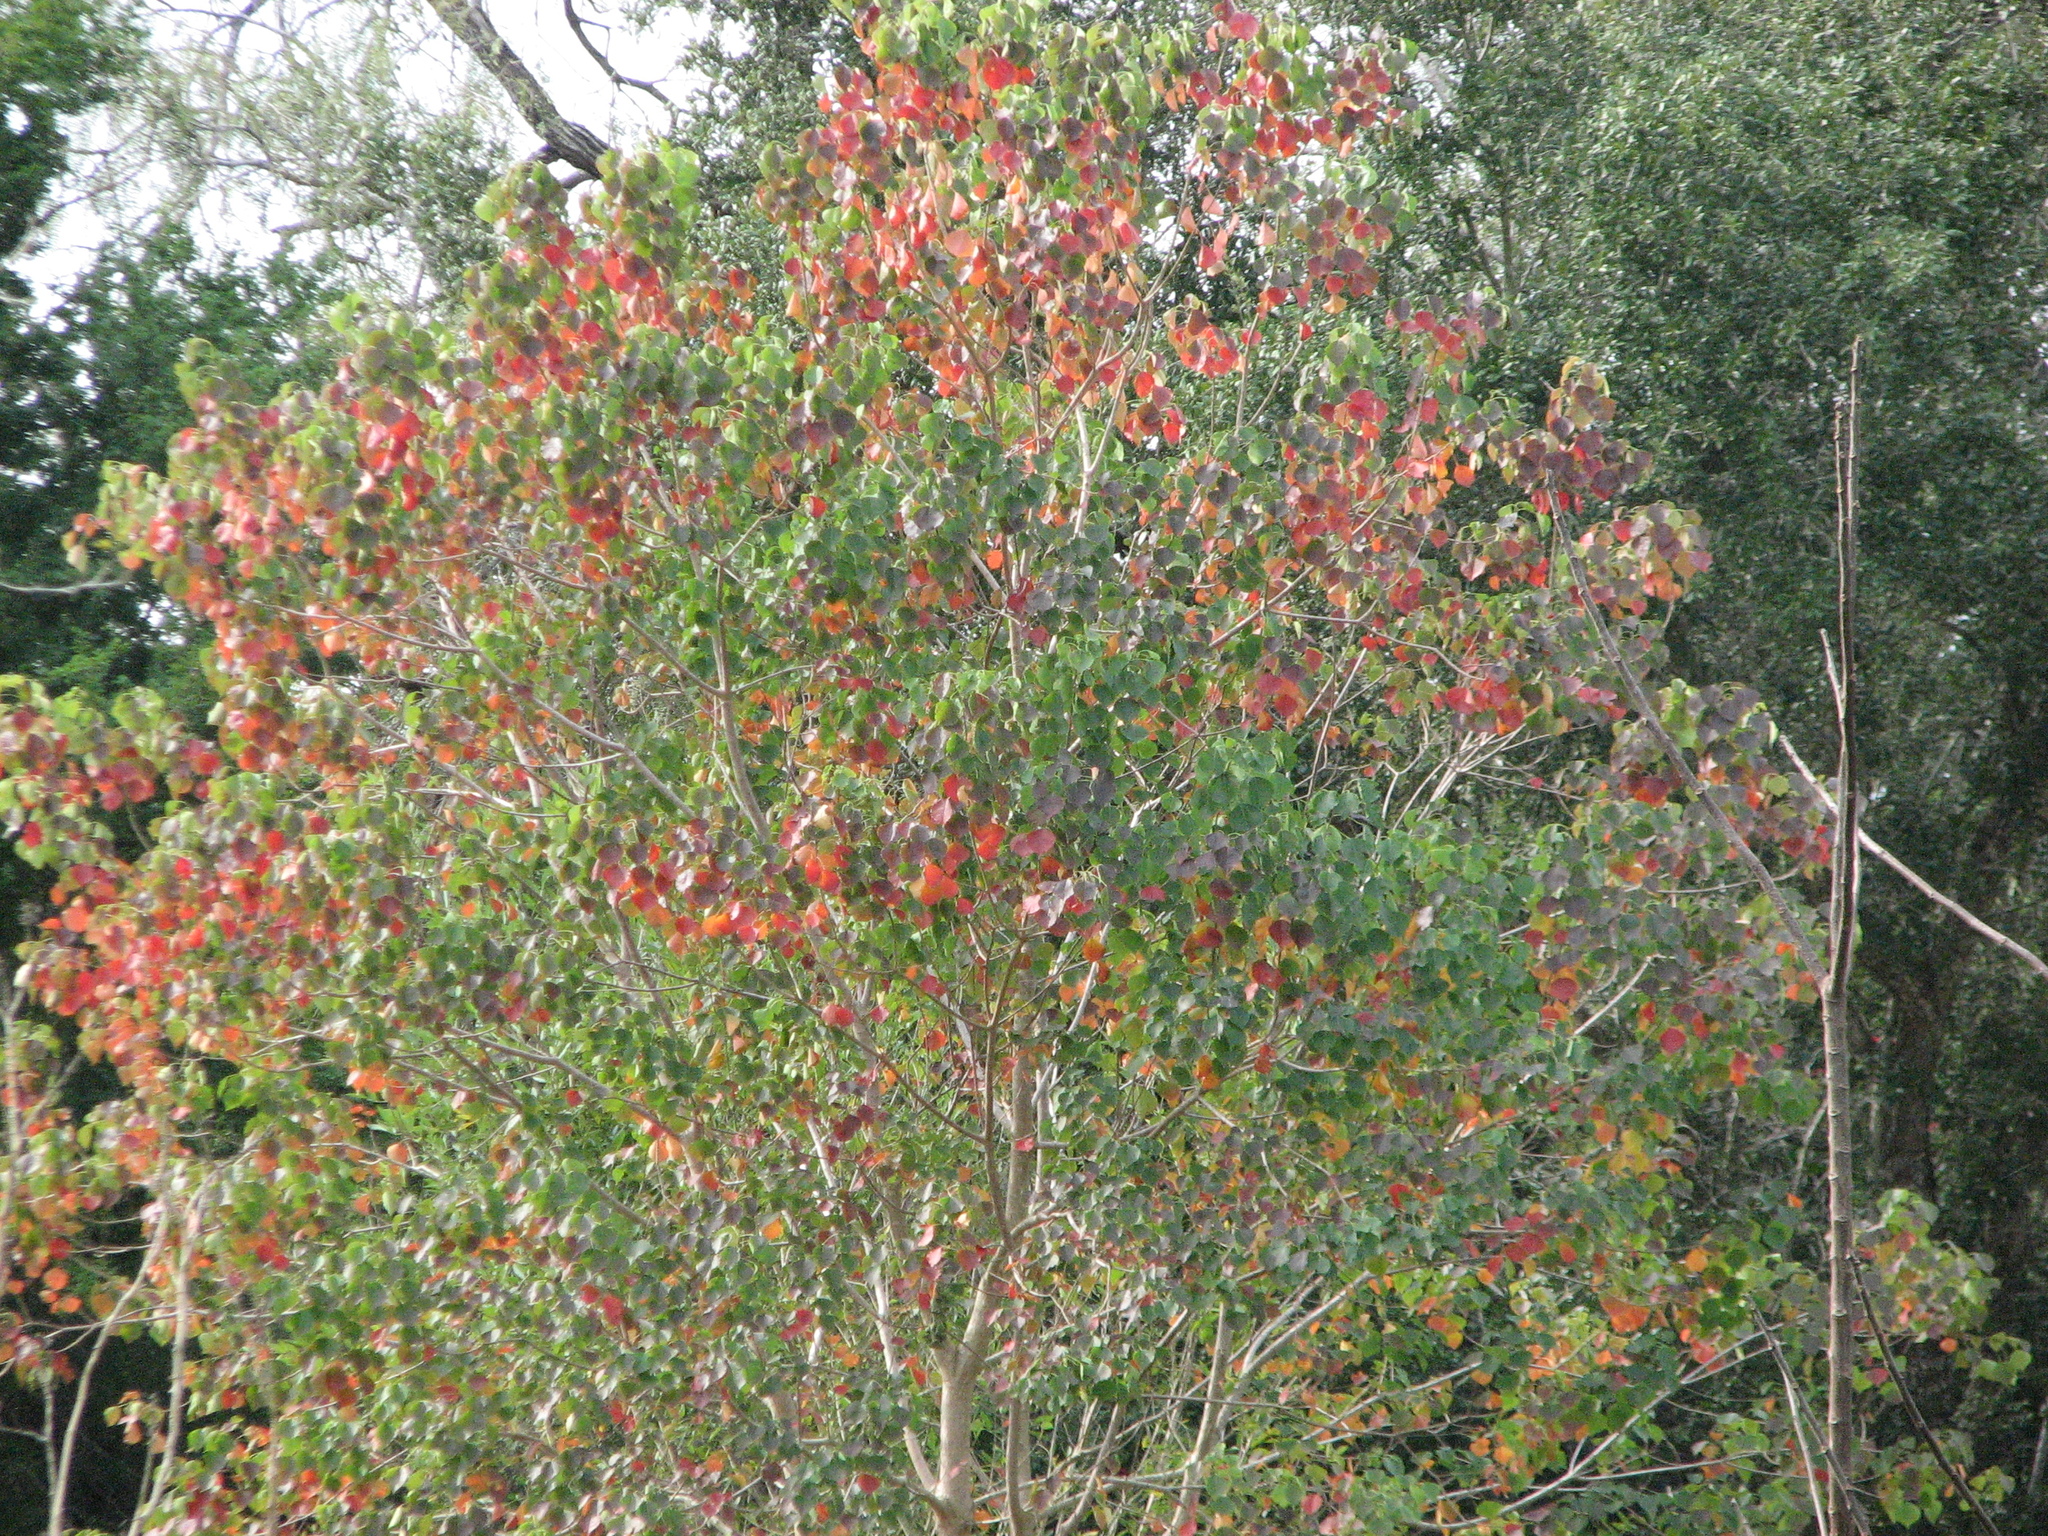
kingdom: Plantae
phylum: Tracheophyta
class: Magnoliopsida
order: Malpighiales
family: Euphorbiaceae
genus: Triadica
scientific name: Triadica sebifera
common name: Chinese tallow
